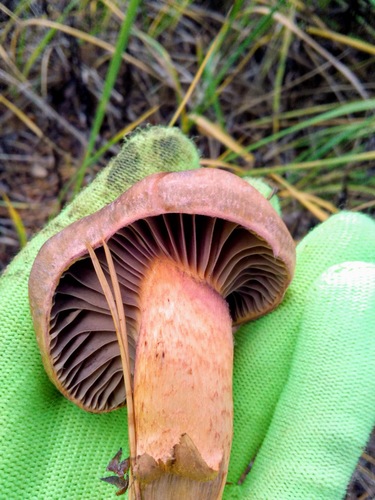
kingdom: Fungi
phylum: Basidiomycota
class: Agaricomycetes
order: Boletales
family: Gomphidiaceae
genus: Chroogomphus
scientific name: Chroogomphus
